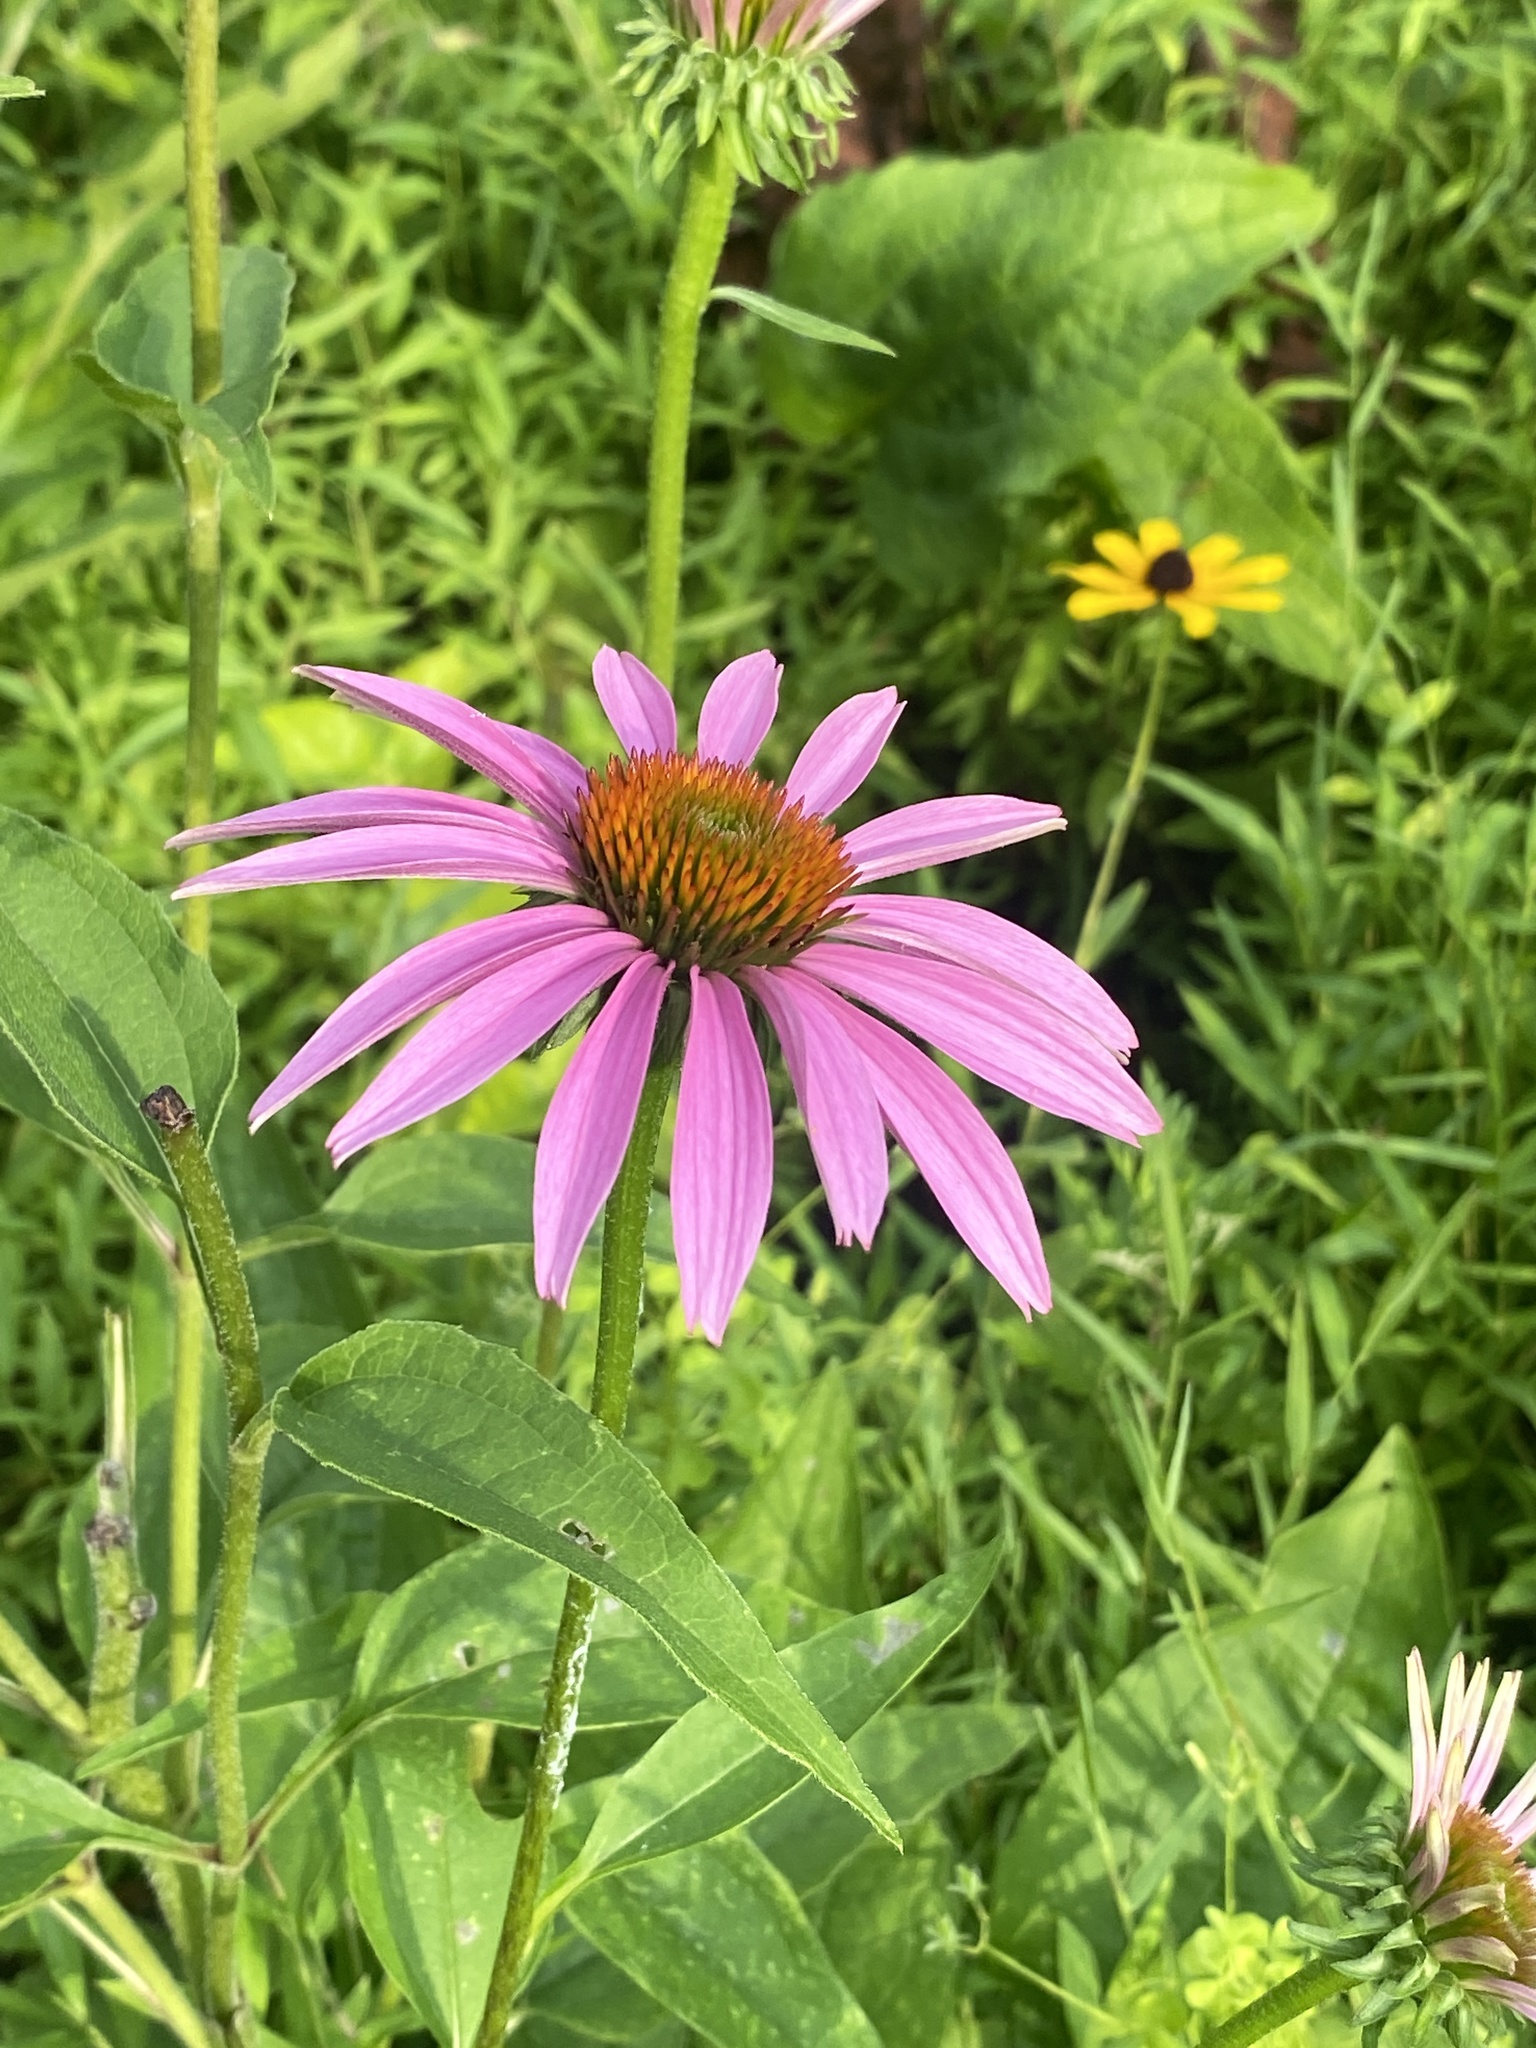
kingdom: Plantae
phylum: Tracheophyta
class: Magnoliopsida
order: Asterales
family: Asteraceae
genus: Echinacea
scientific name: Echinacea purpurea
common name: Broad-leaved purple coneflower
